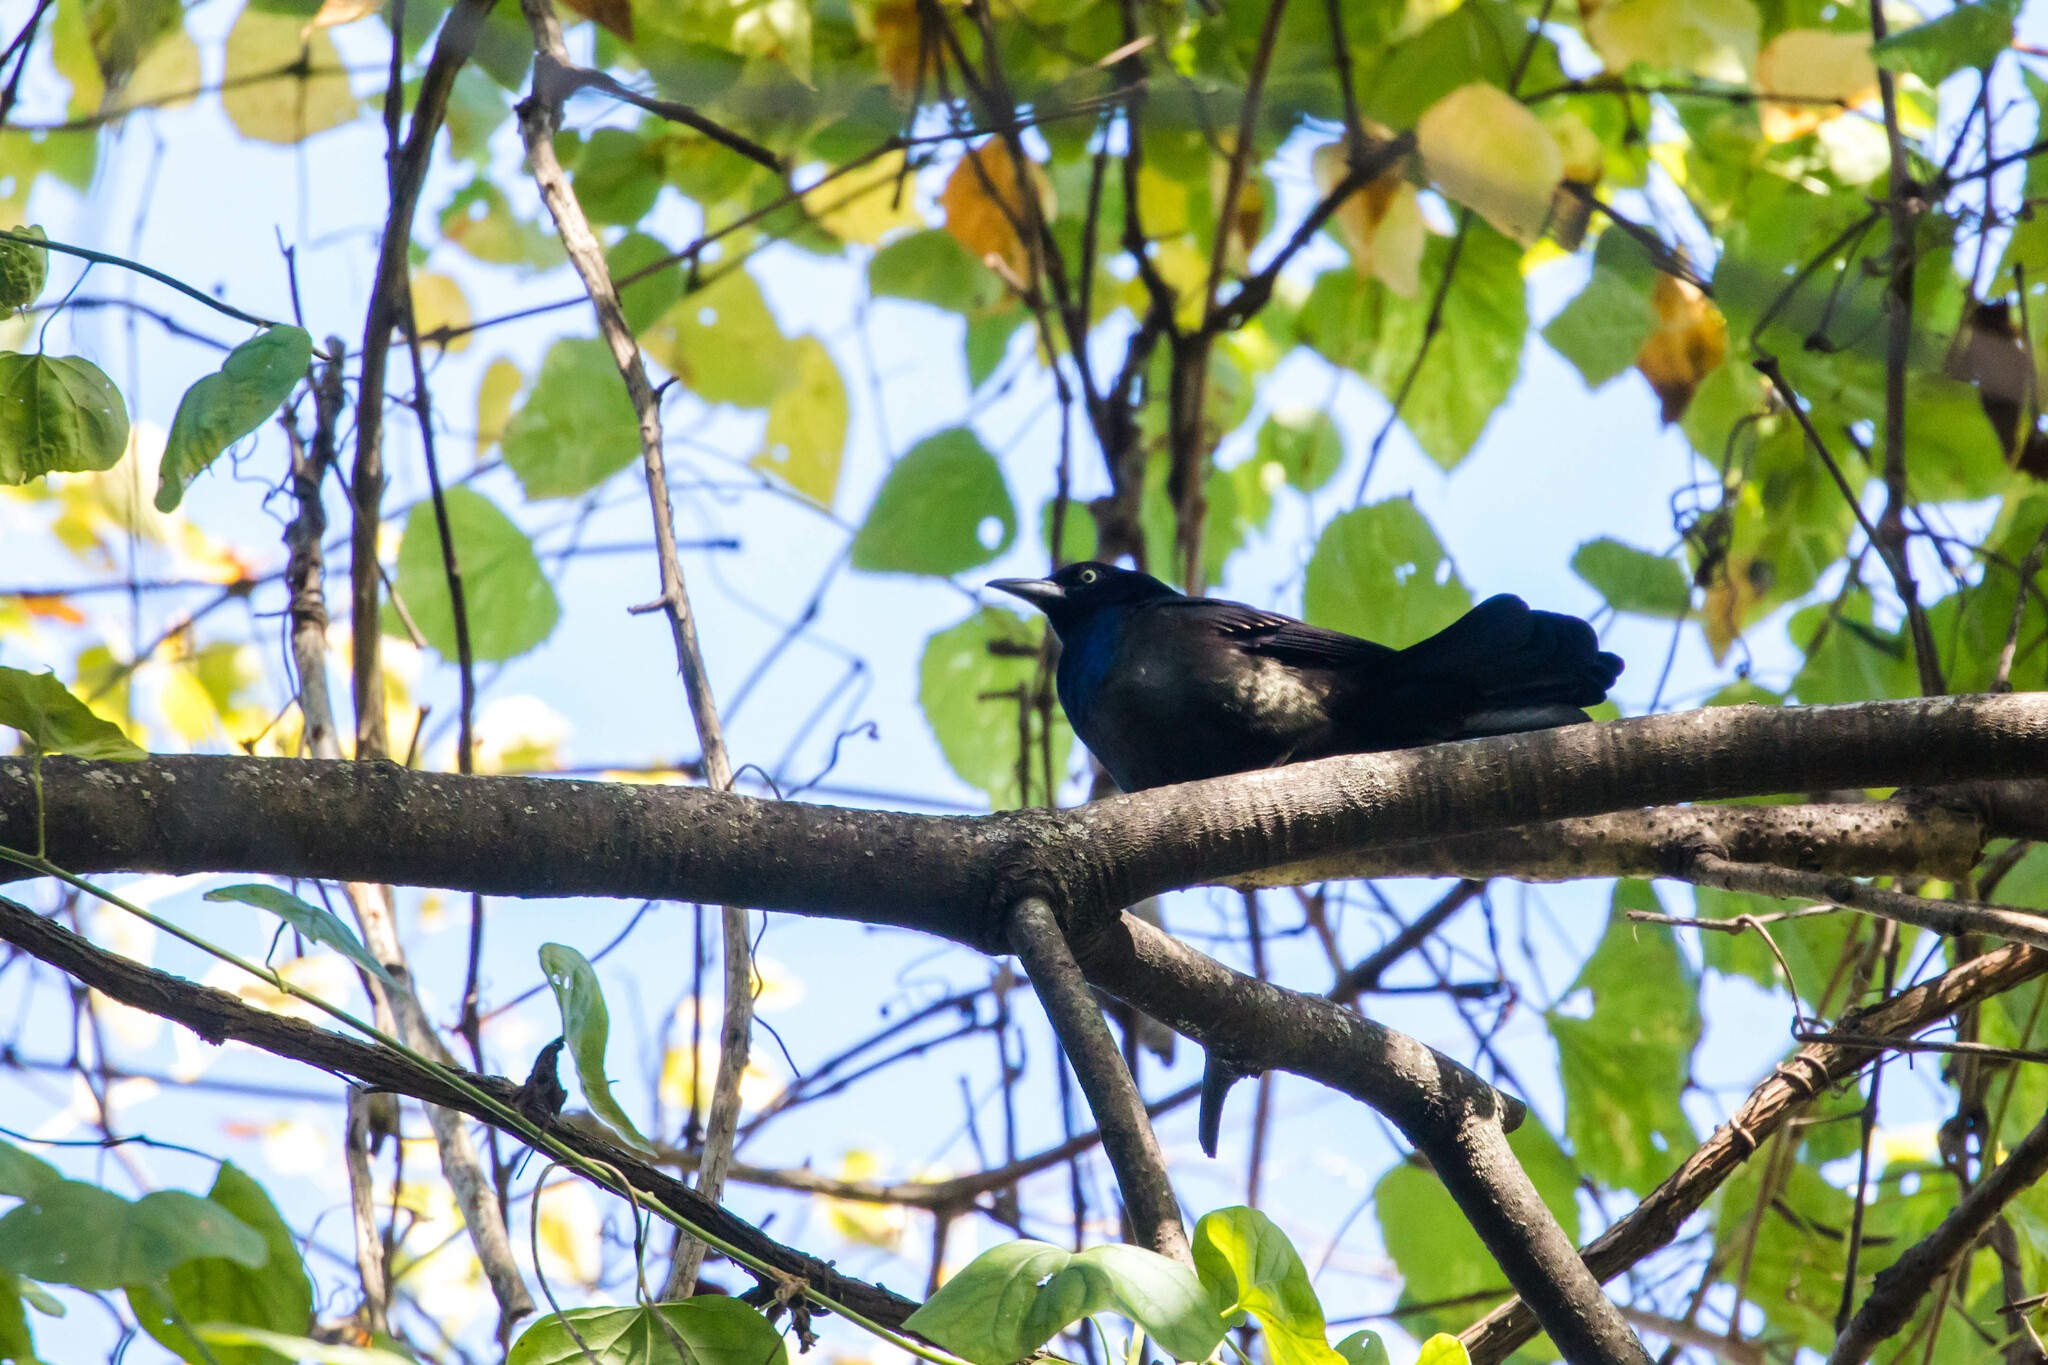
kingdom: Animalia
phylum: Chordata
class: Aves
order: Passeriformes
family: Icteridae
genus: Quiscalus
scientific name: Quiscalus quiscula
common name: Common grackle
